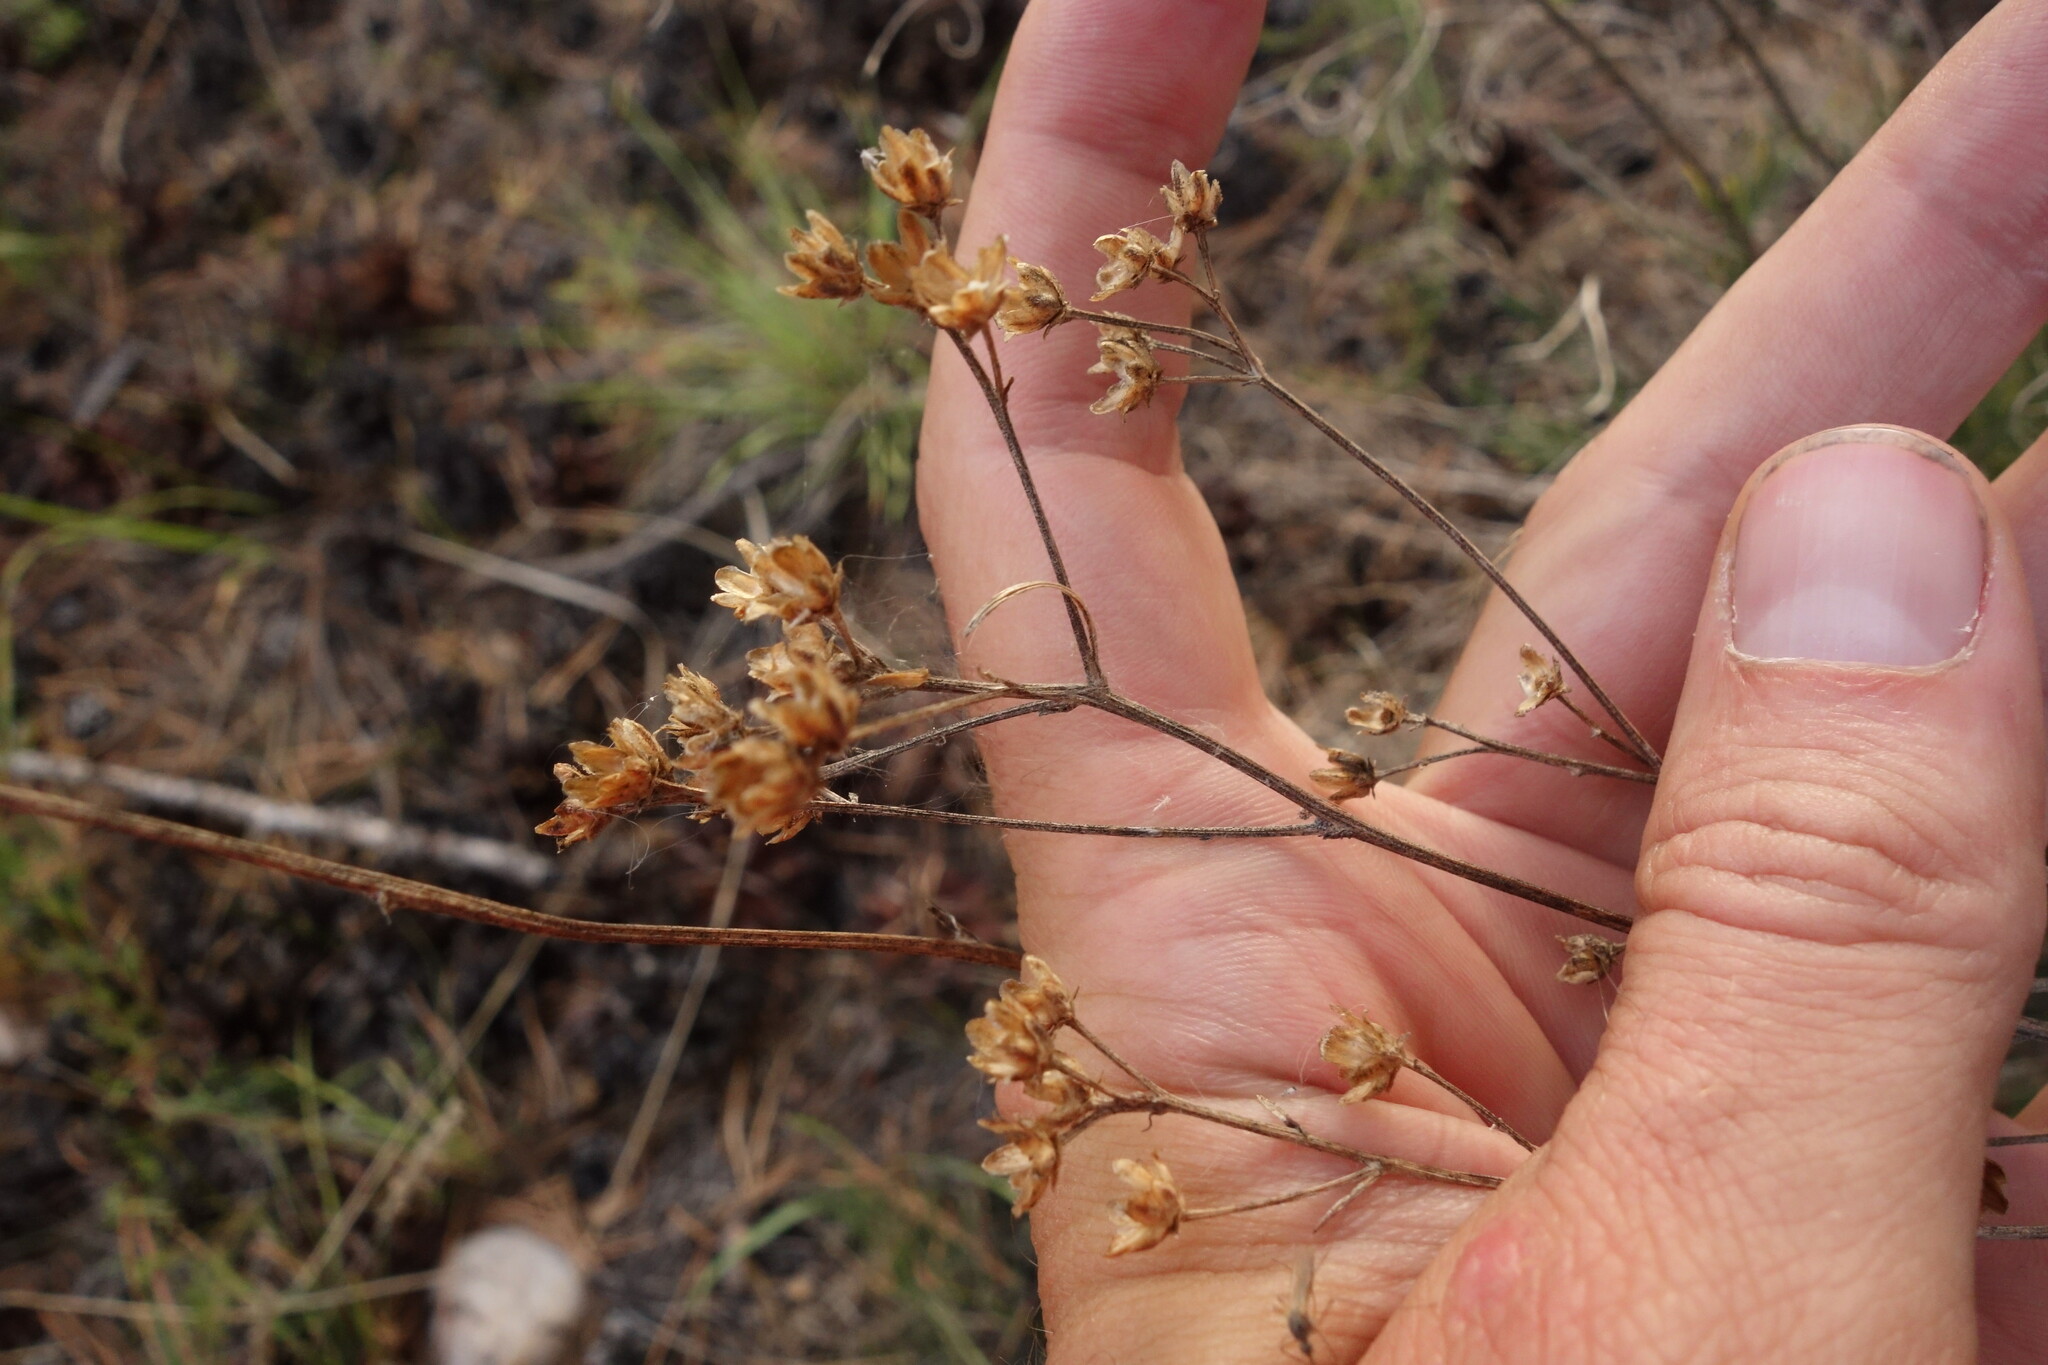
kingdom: Plantae
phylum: Tracheophyta
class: Magnoliopsida
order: Asterales
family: Asteraceae
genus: Filifolium
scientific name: Filifolium sibiricum
